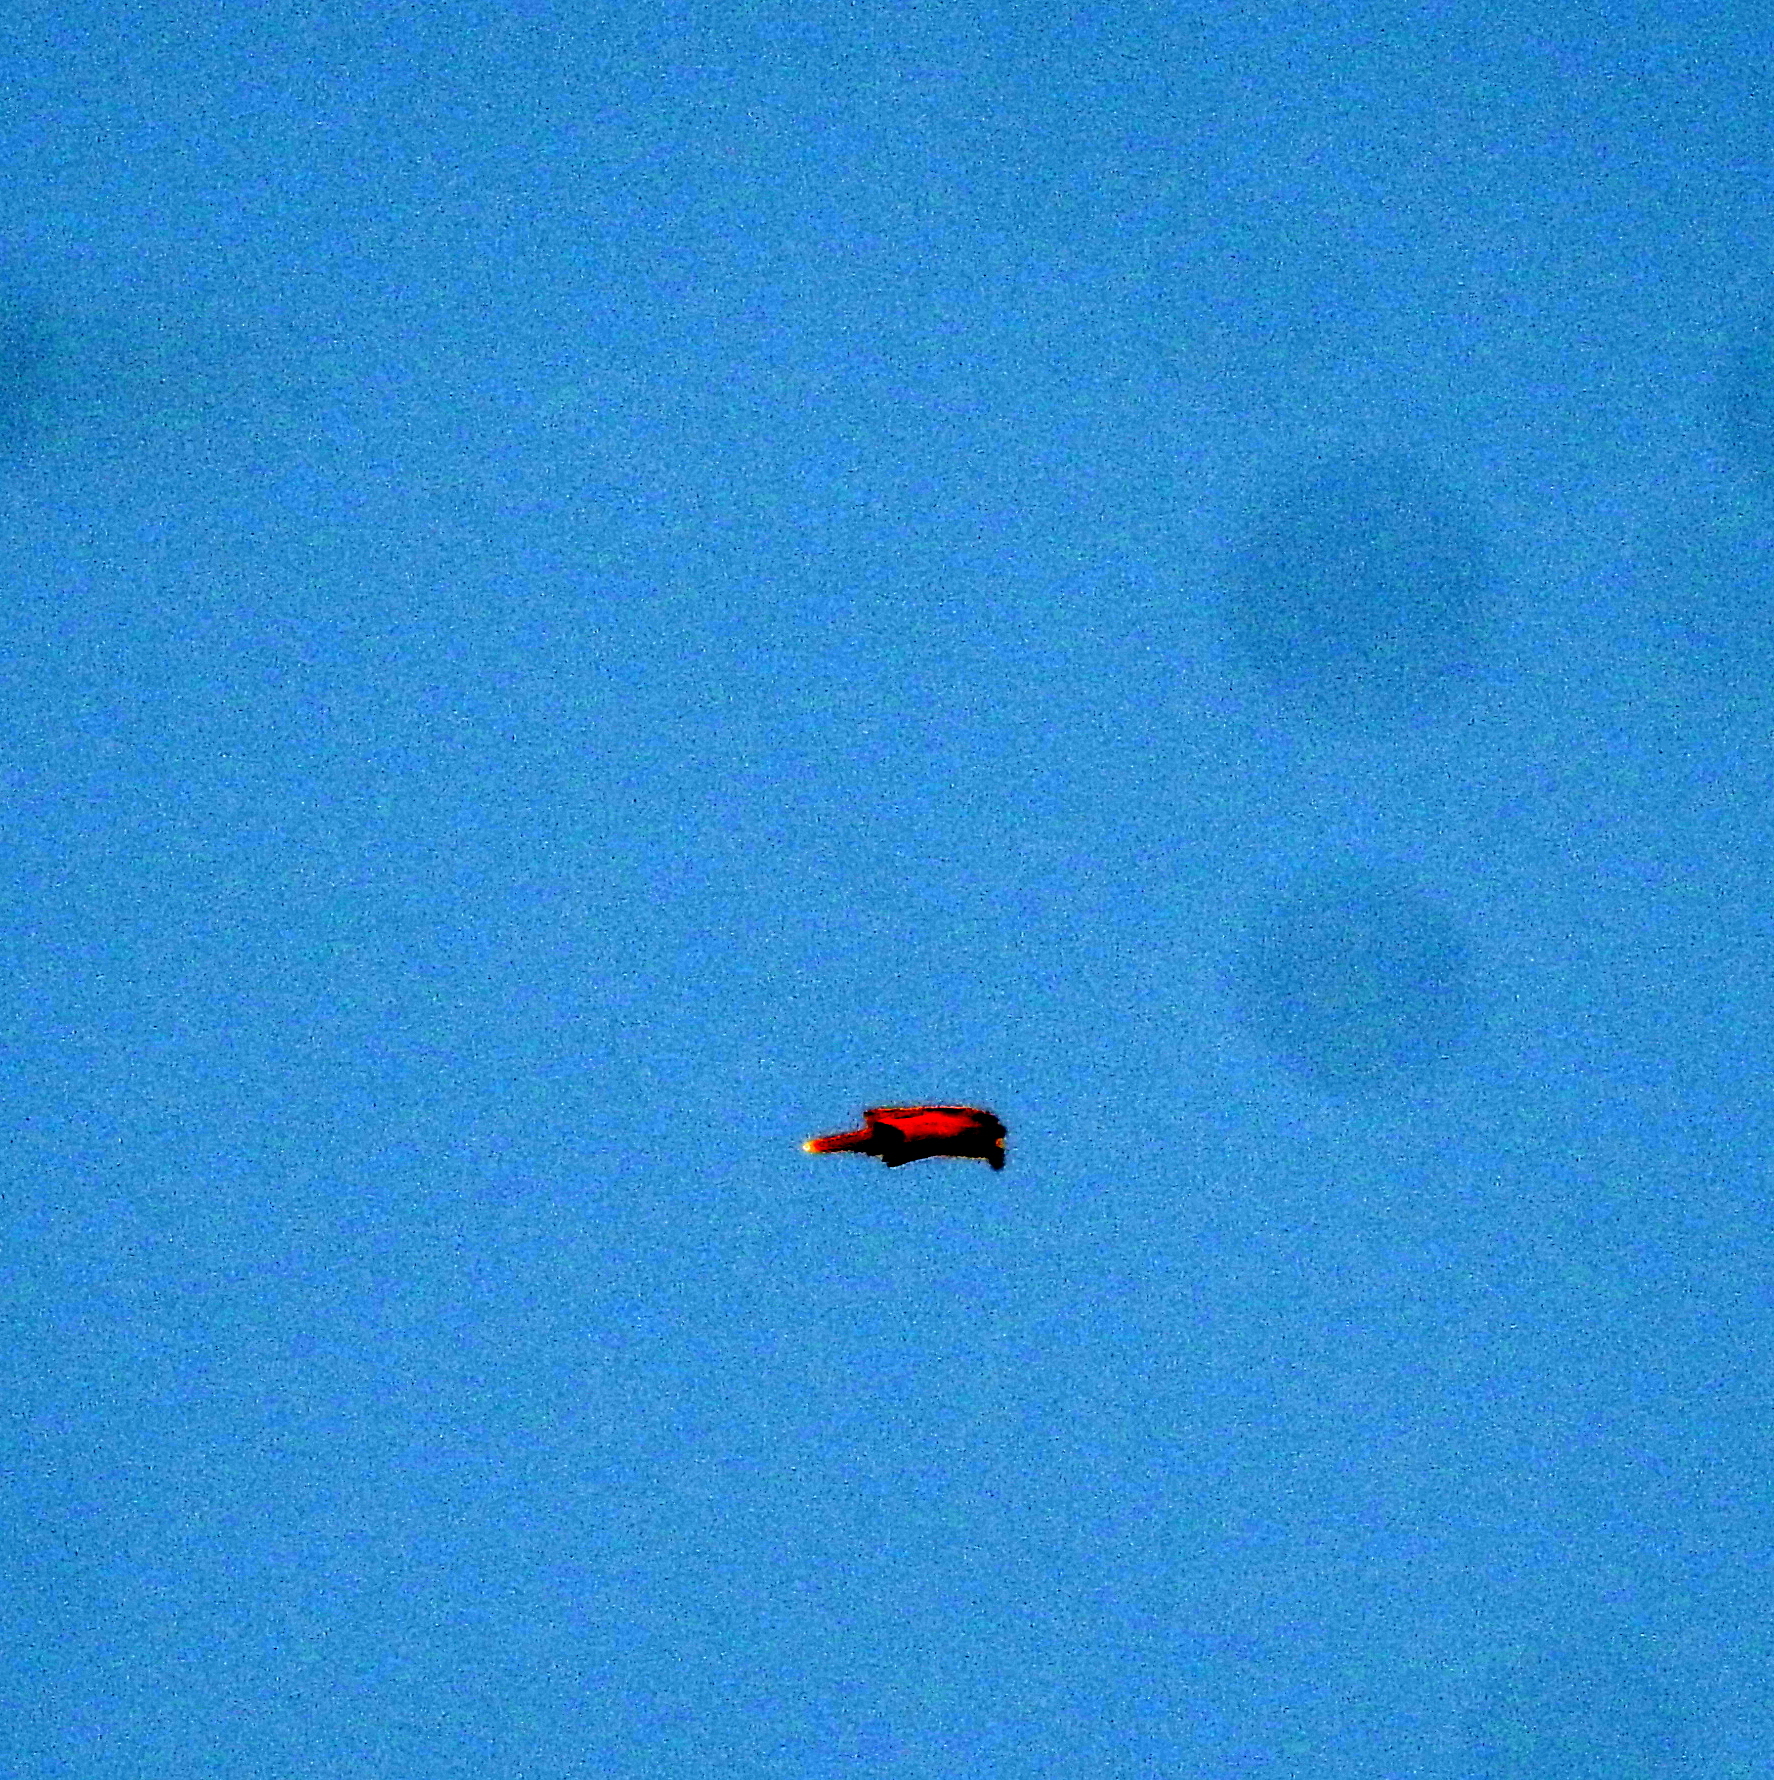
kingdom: Animalia
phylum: Chordata
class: Aves
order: Accipitriformes
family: Accipitridae
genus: Haliastur
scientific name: Haliastur indus
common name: Brahminy kite
